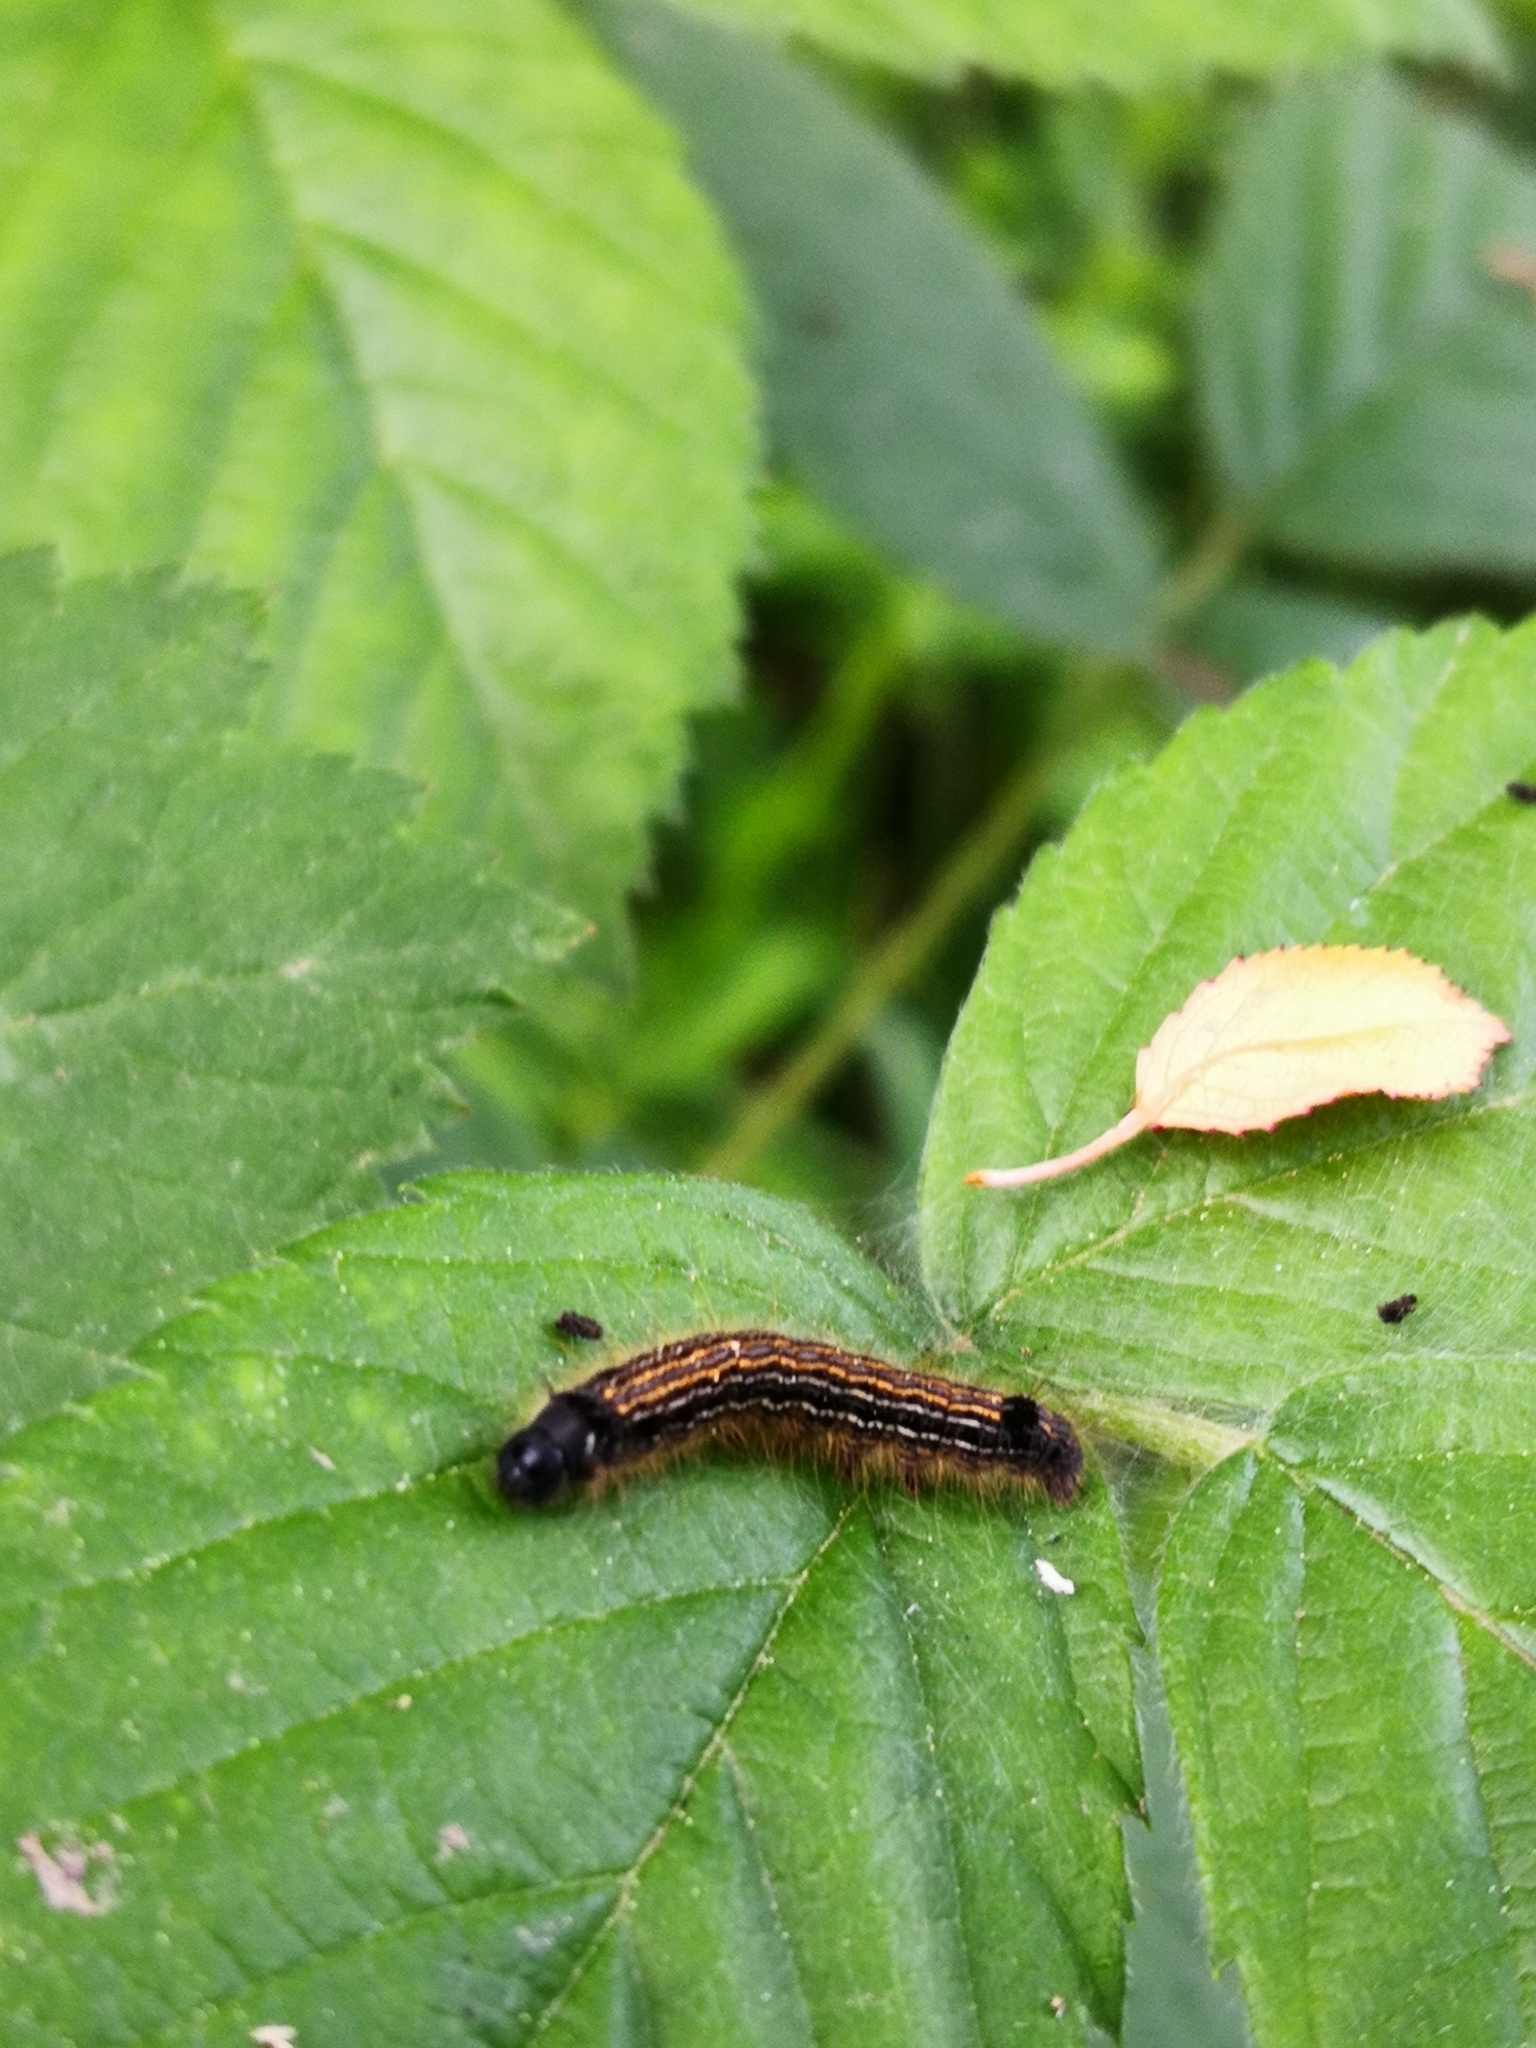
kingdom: Animalia
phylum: Arthropoda
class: Insecta
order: Lepidoptera
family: Lasiocampidae
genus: Malacosoma
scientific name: Malacosoma neustria
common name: The lackey
